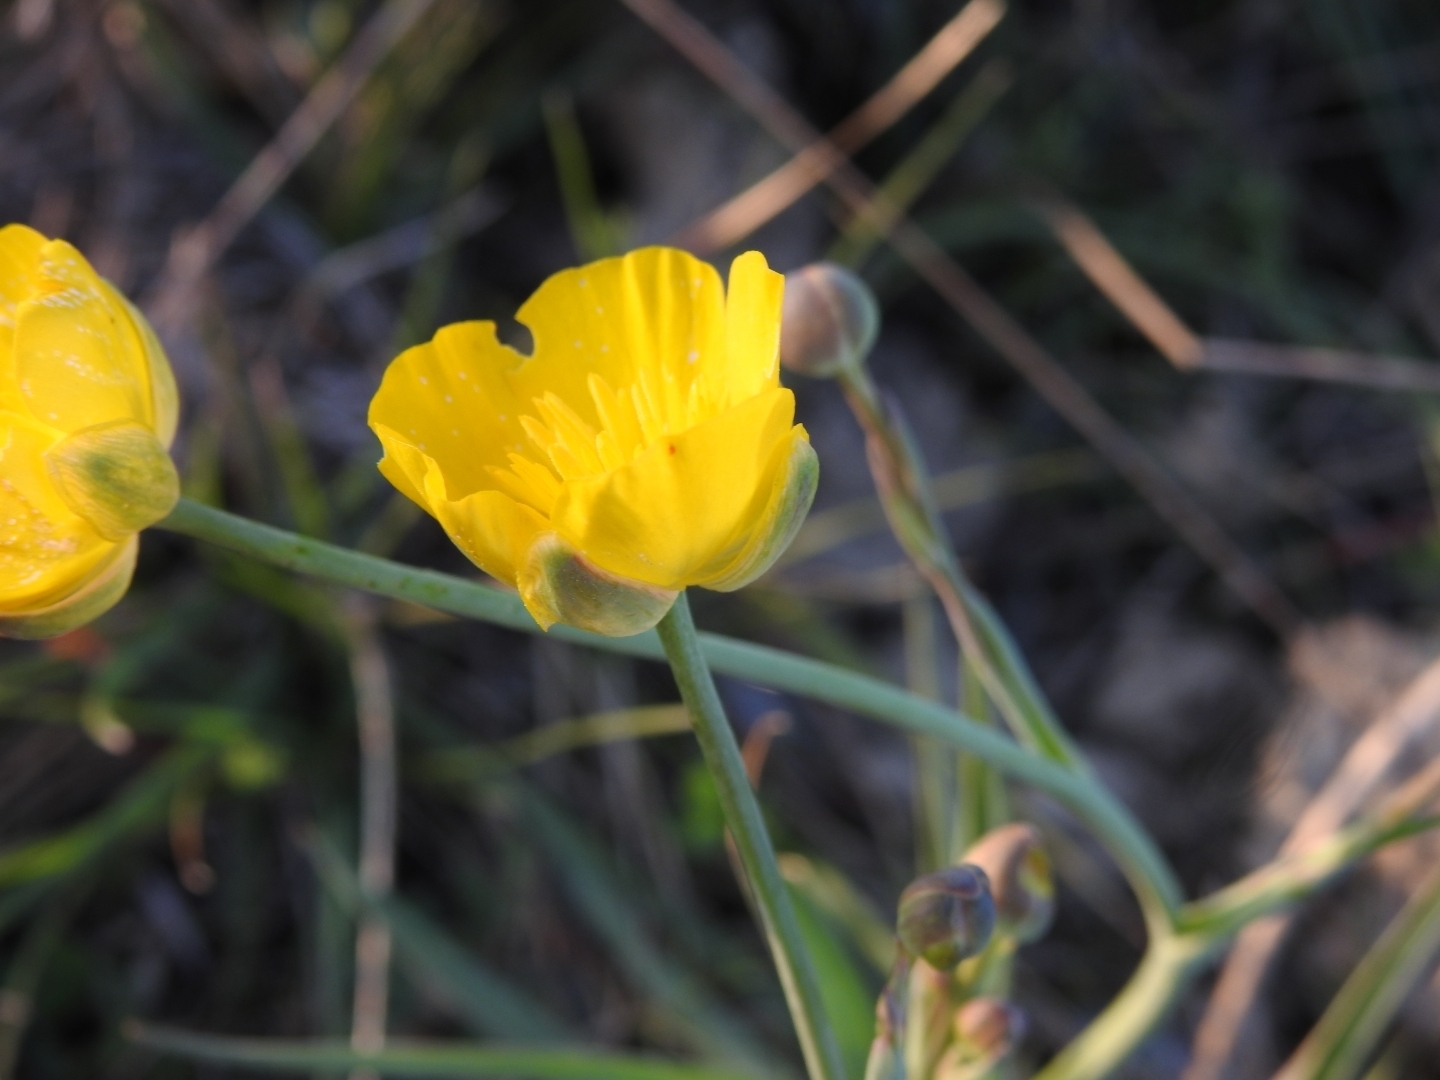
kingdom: Plantae
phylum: Tracheophyta
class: Magnoliopsida
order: Ranunculales
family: Ranunculaceae
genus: Ranunculus
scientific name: Ranunculus gramineus
